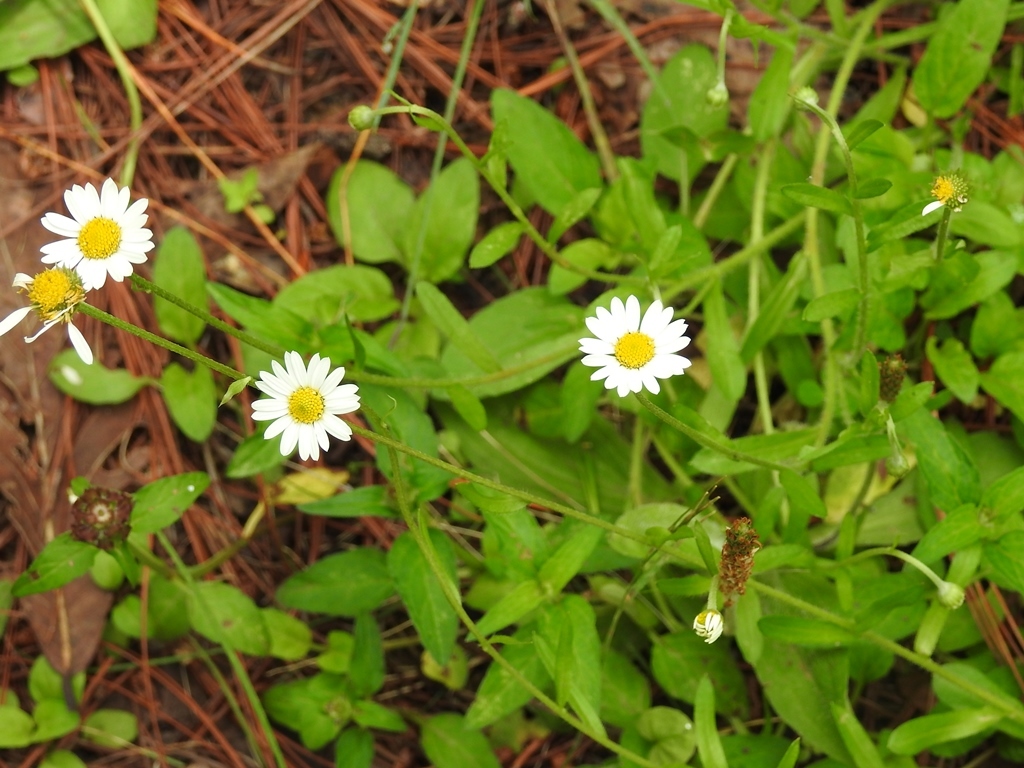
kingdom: Plantae
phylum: Tracheophyta
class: Magnoliopsida
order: Asterales
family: Asteraceae
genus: Erigeron
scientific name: Erigeron karvinskianus
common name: Mexican fleabane
